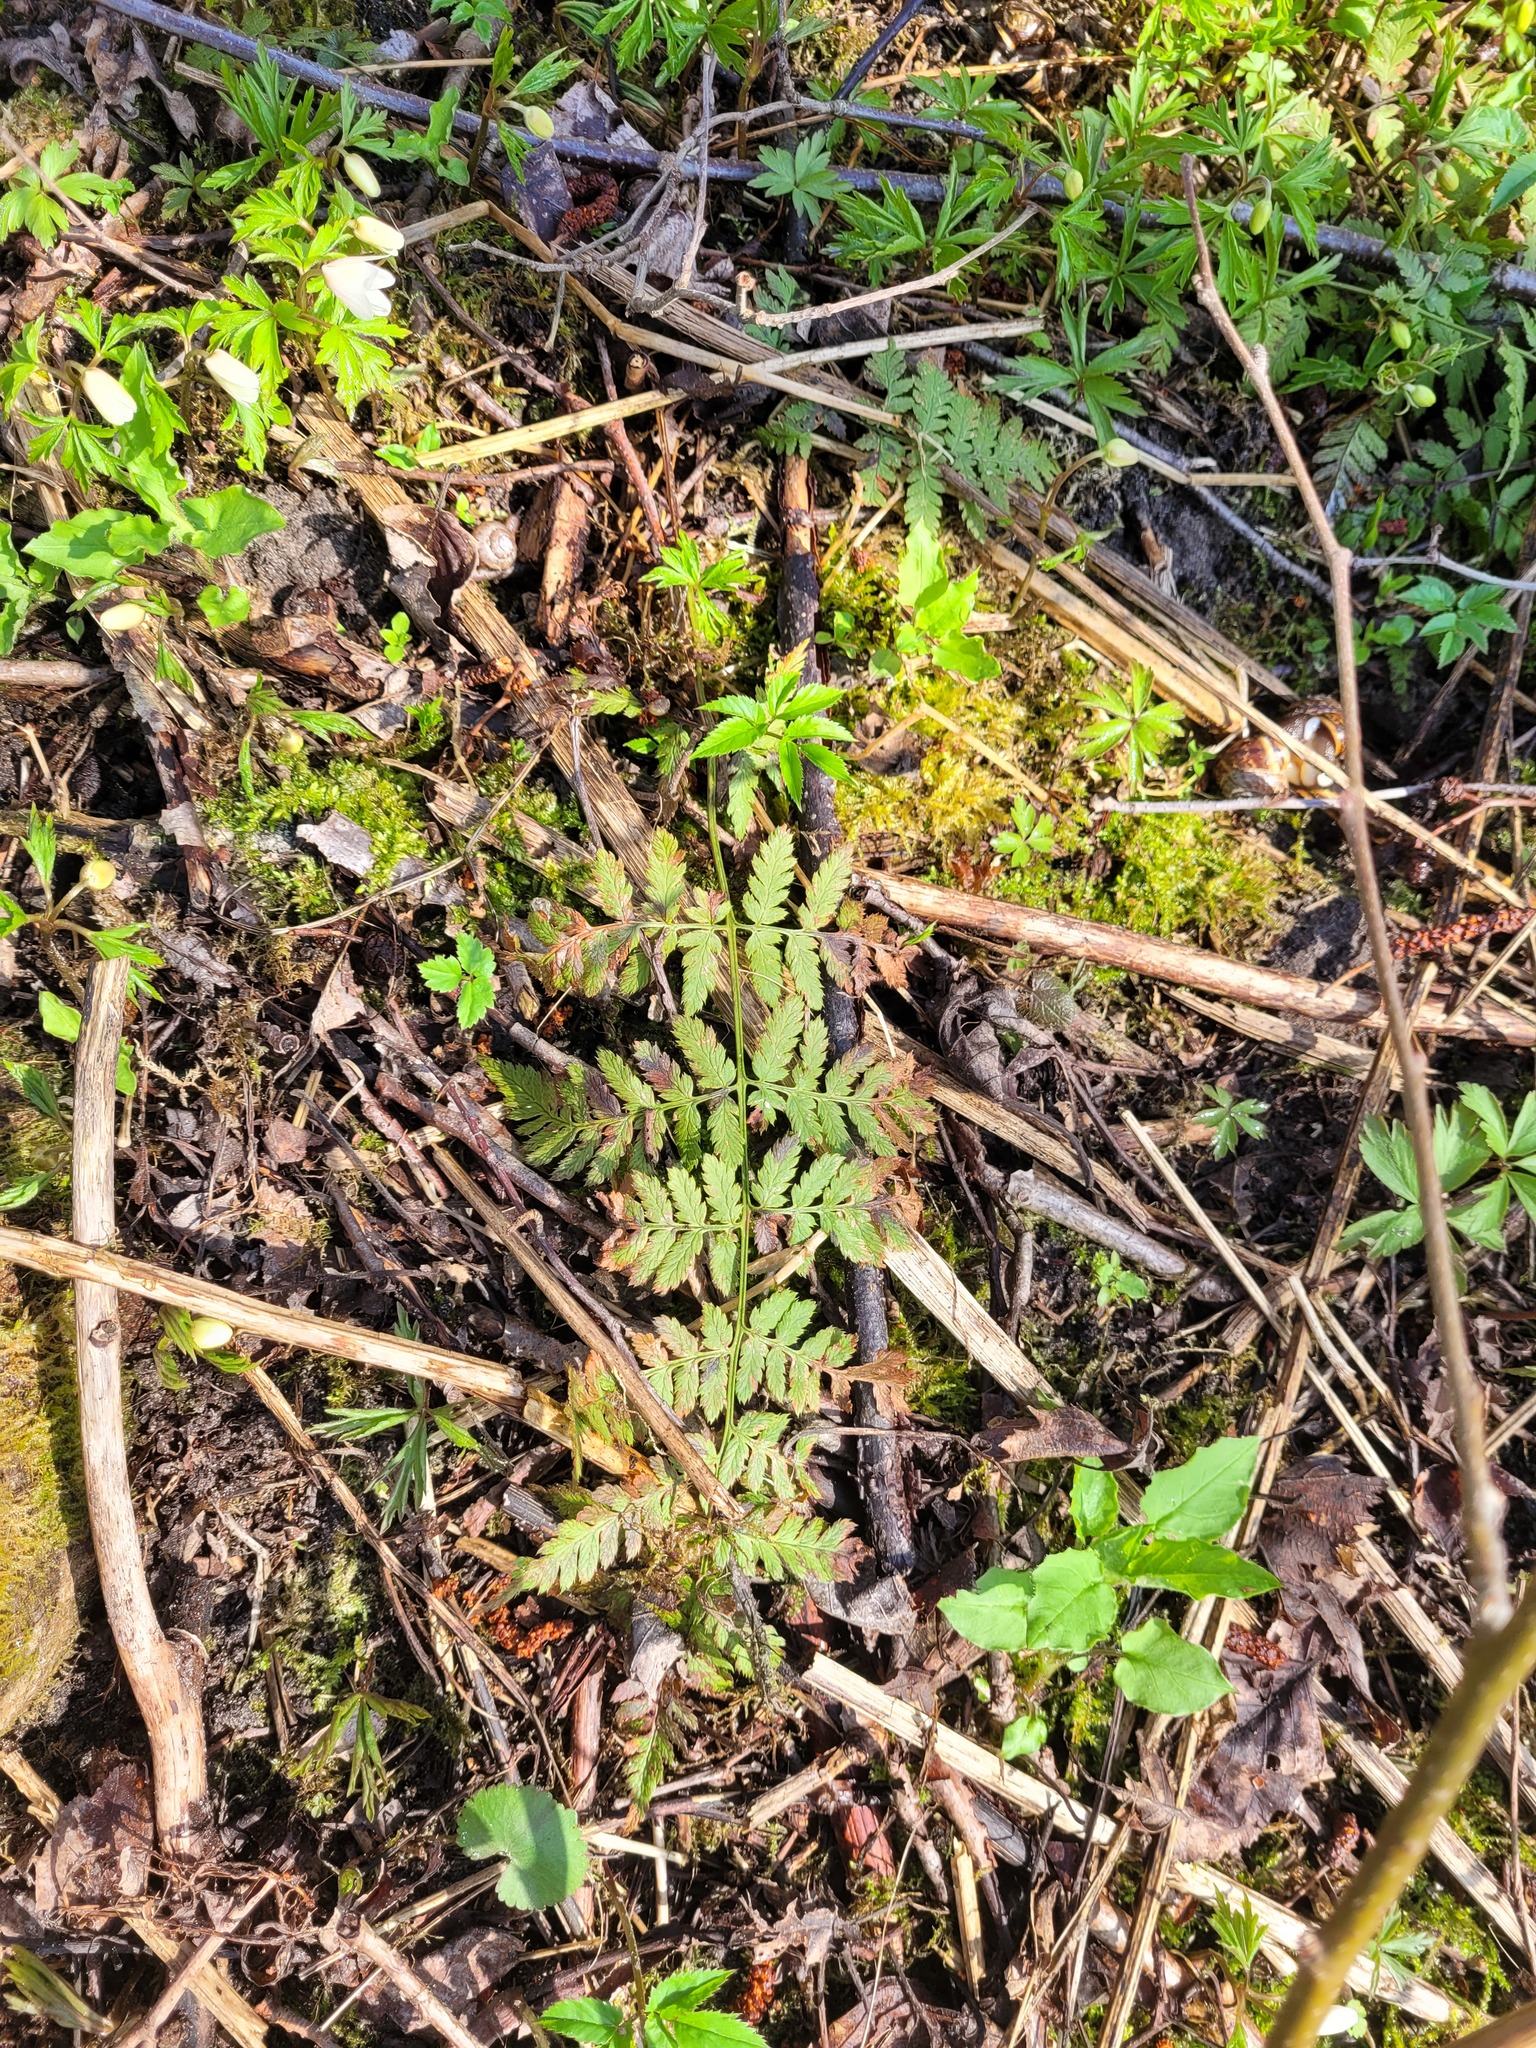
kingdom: Plantae
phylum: Tracheophyta
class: Polypodiopsida
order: Polypodiales
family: Dryopteridaceae
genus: Dryopteris
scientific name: Dryopteris carthusiana
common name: Narrow buckler-fern
